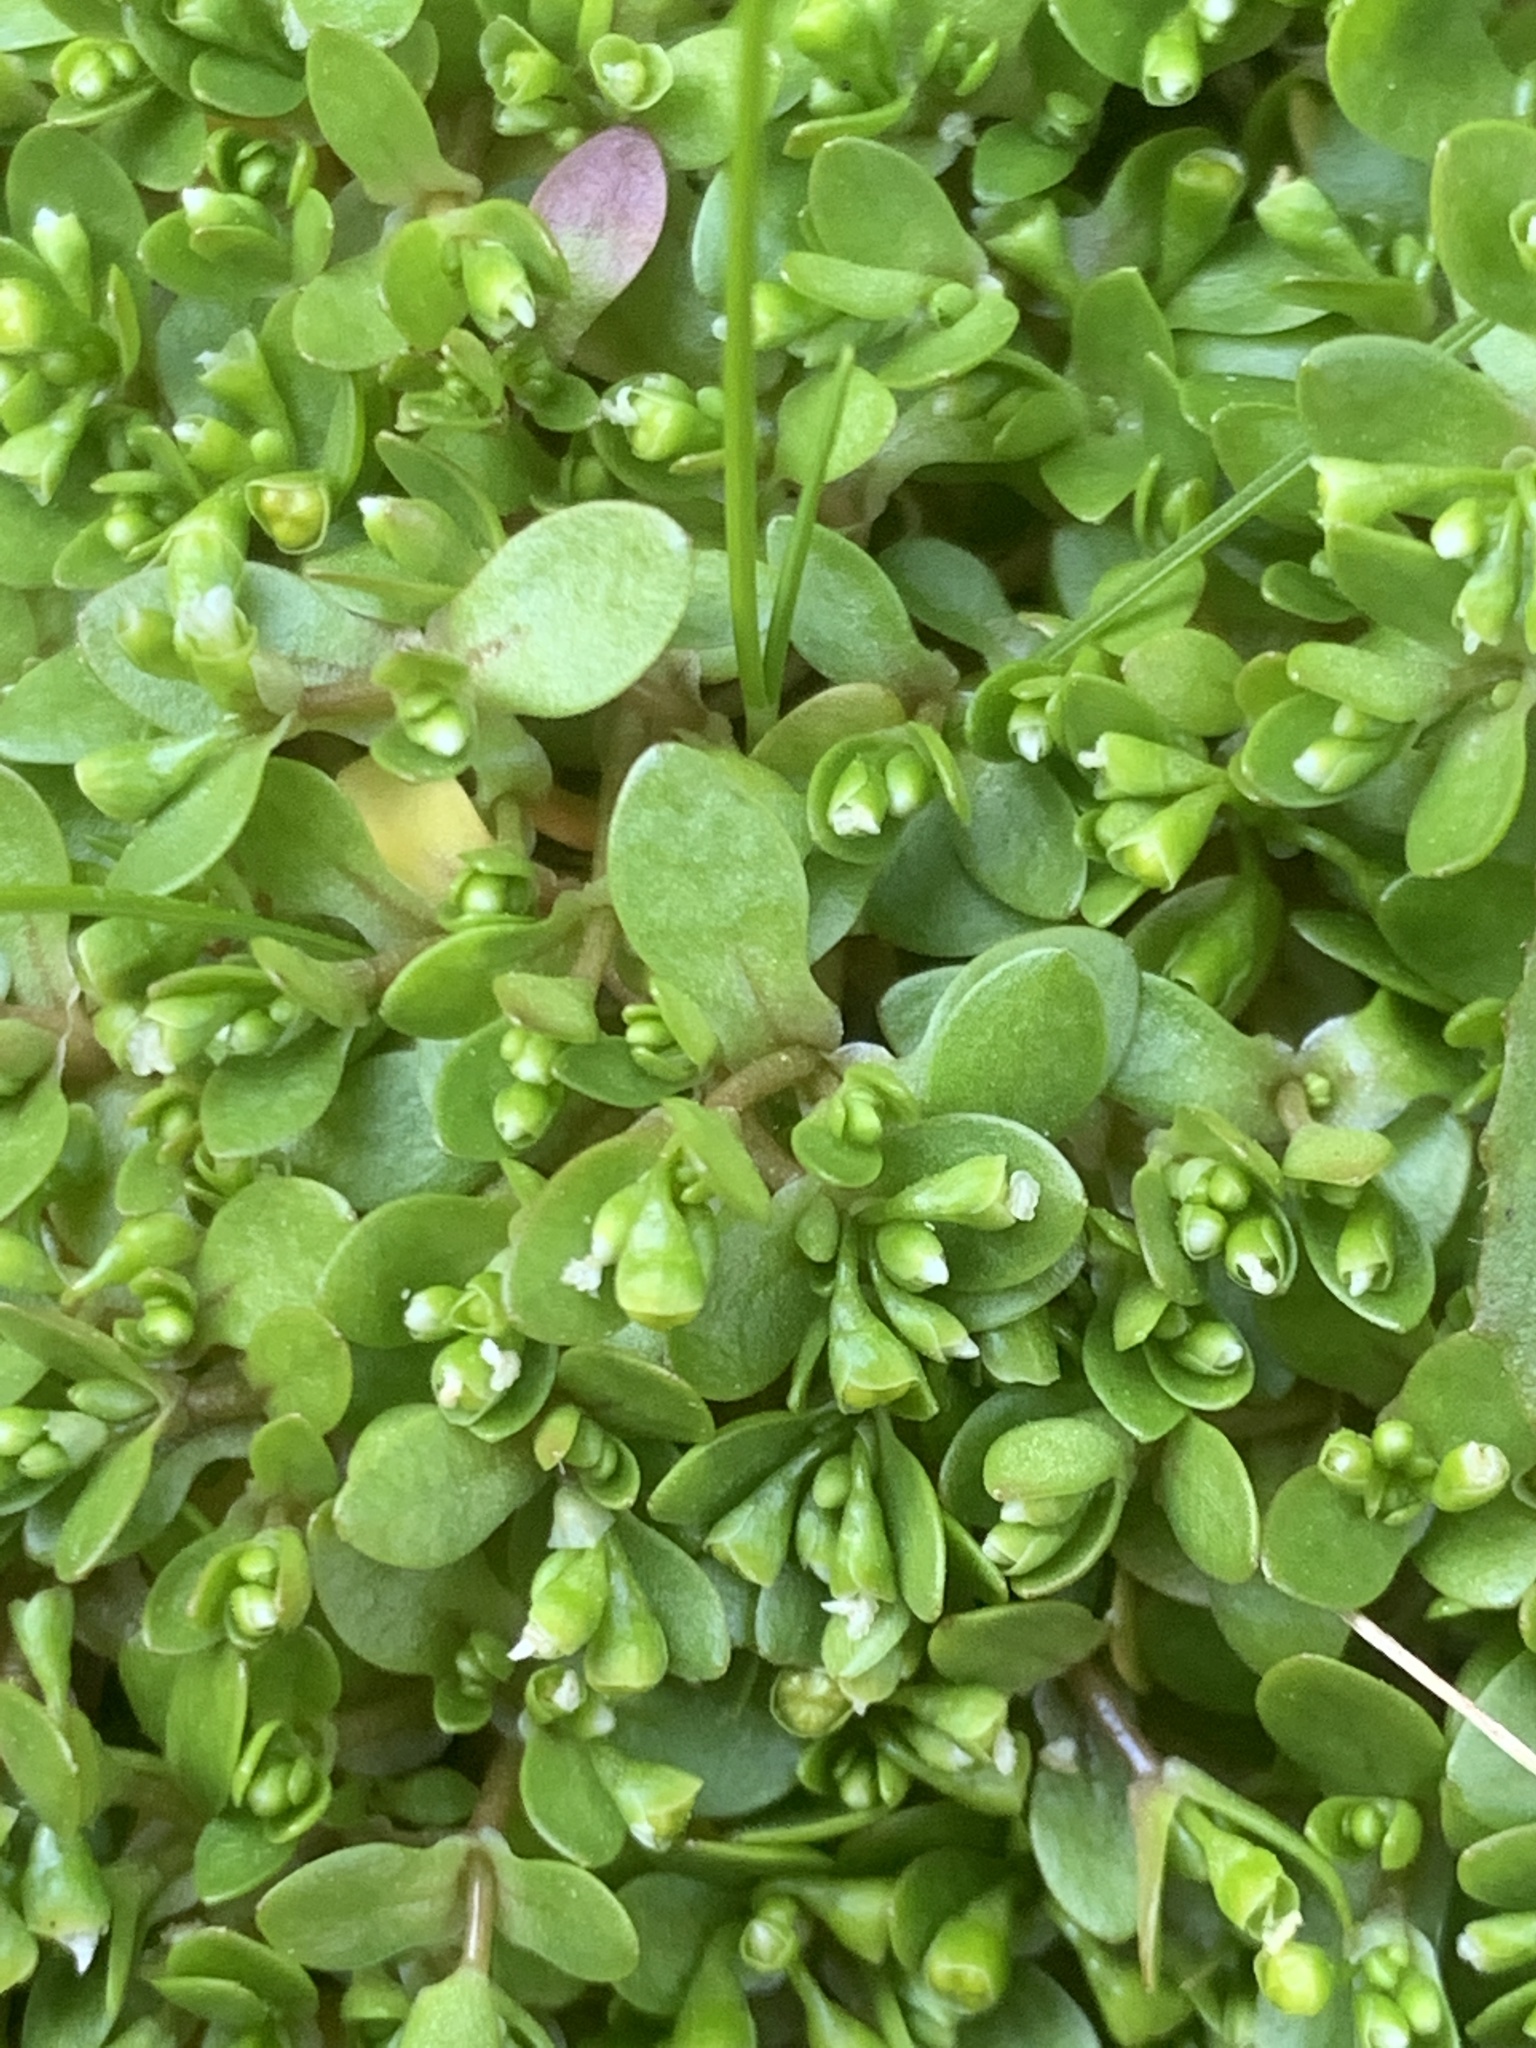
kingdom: Plantae
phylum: Tracheophyta
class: Magnoliopsida
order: Caryophyllales
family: Montiaceae
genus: Montia
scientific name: Montia fontana
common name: Blinks
